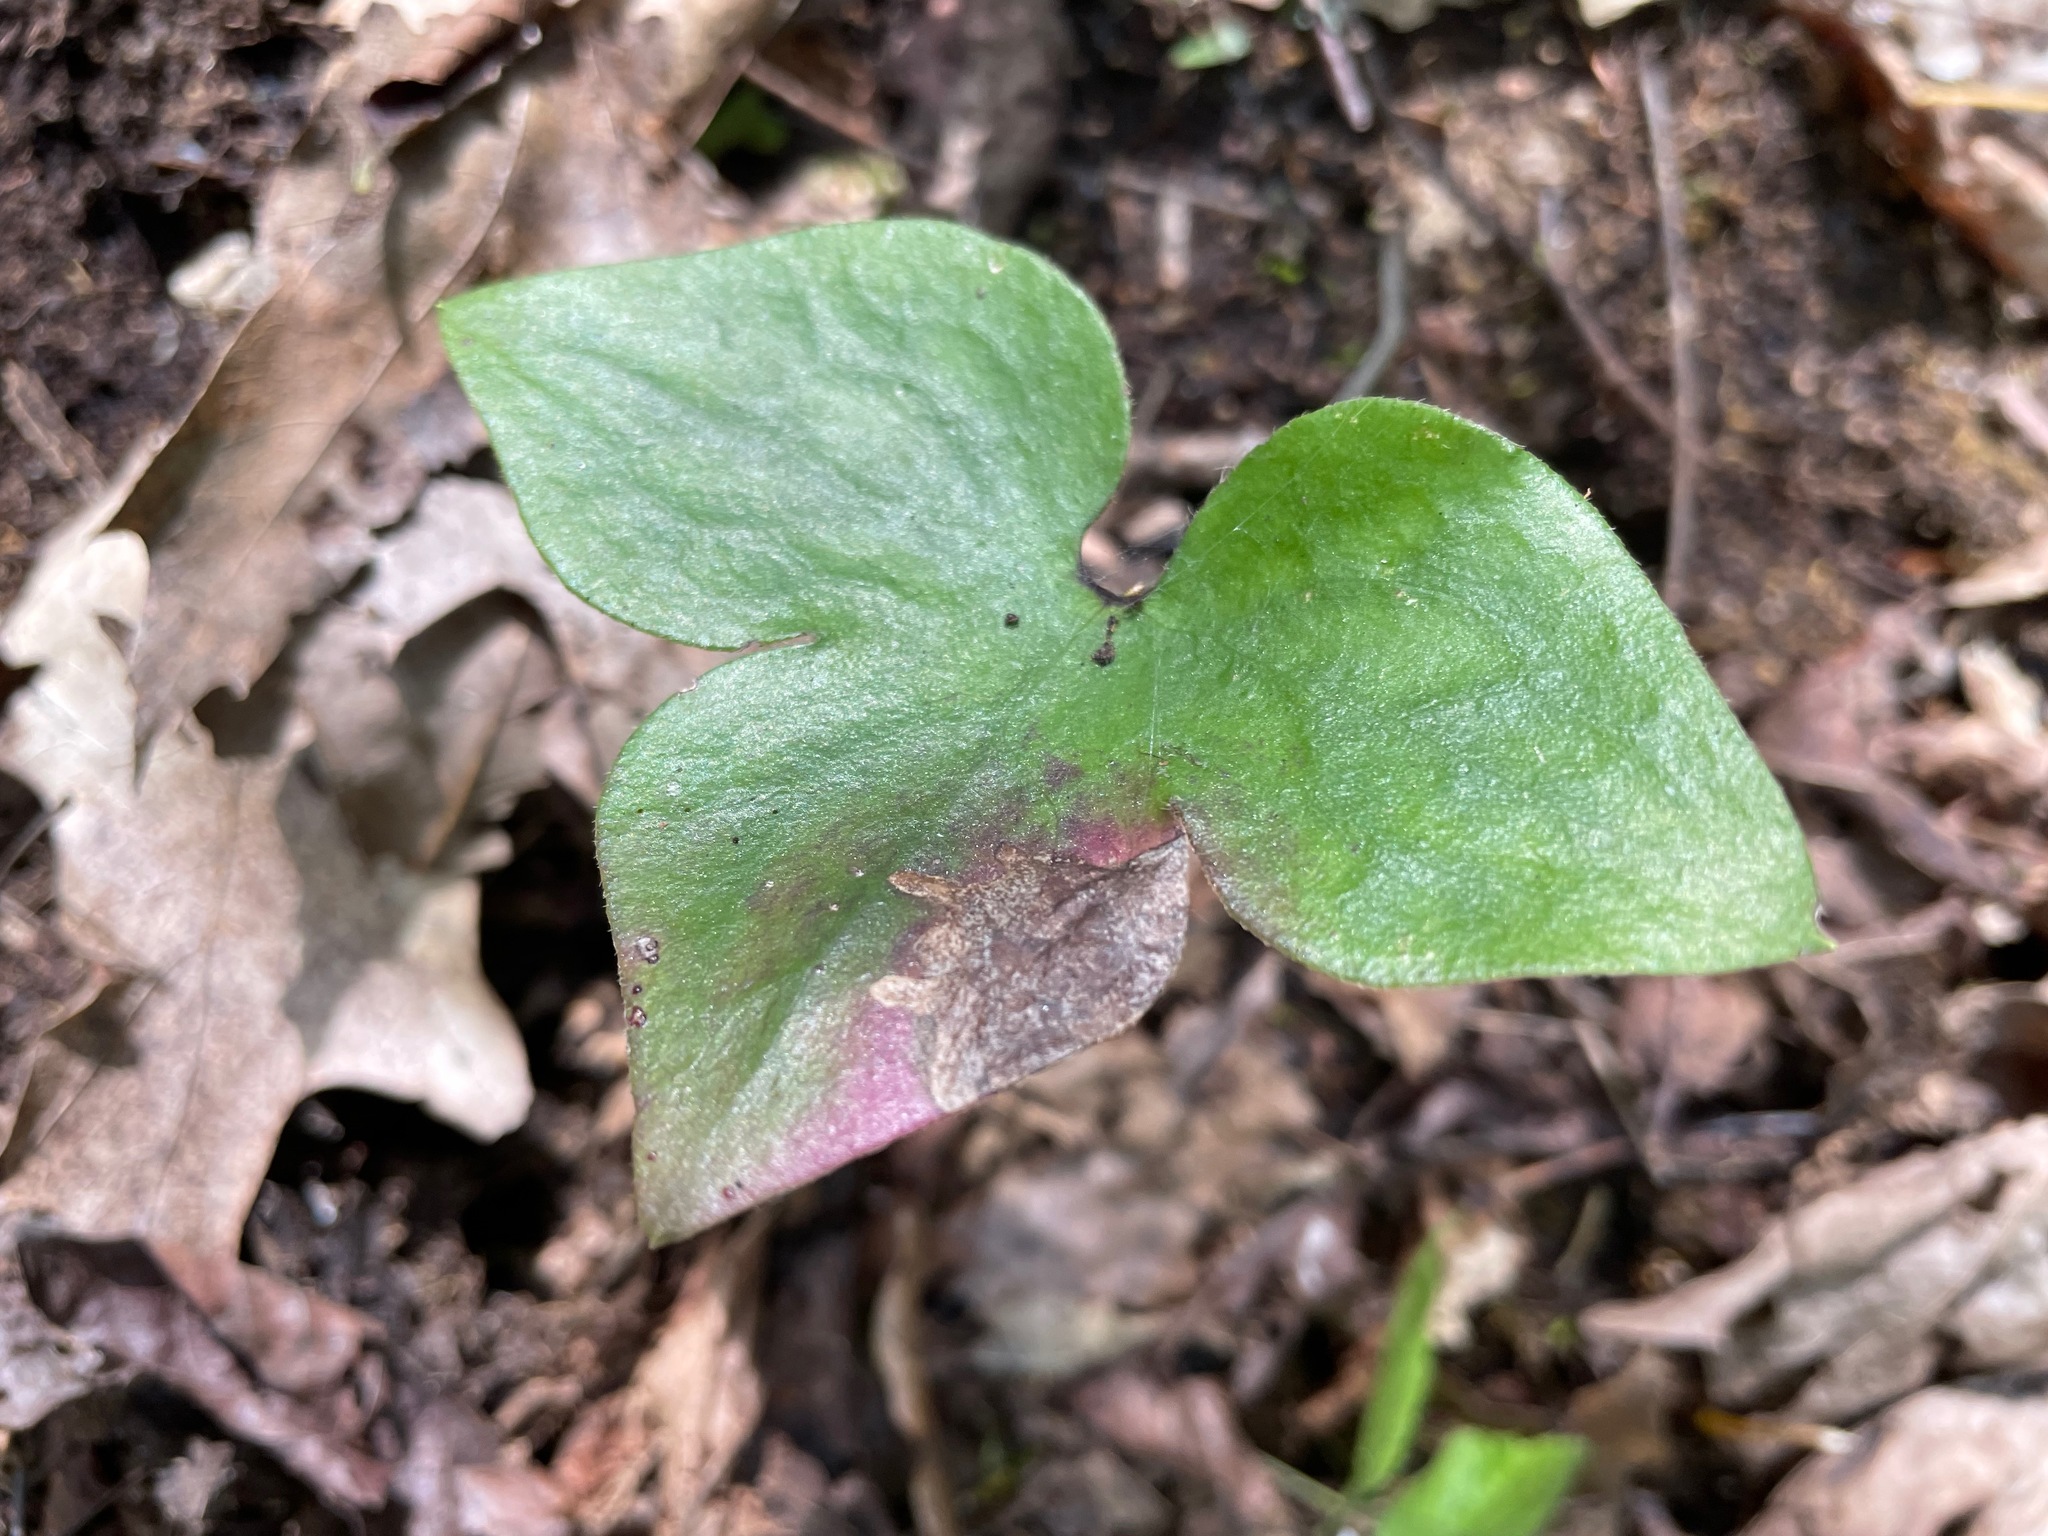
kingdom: Plantae
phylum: Tracheophyta
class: Magnoliopsida
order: Ranunculales
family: Ranunculaceae
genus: Hepatica
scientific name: Hepatica acutiloba
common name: Sharp-lobed hepatica
